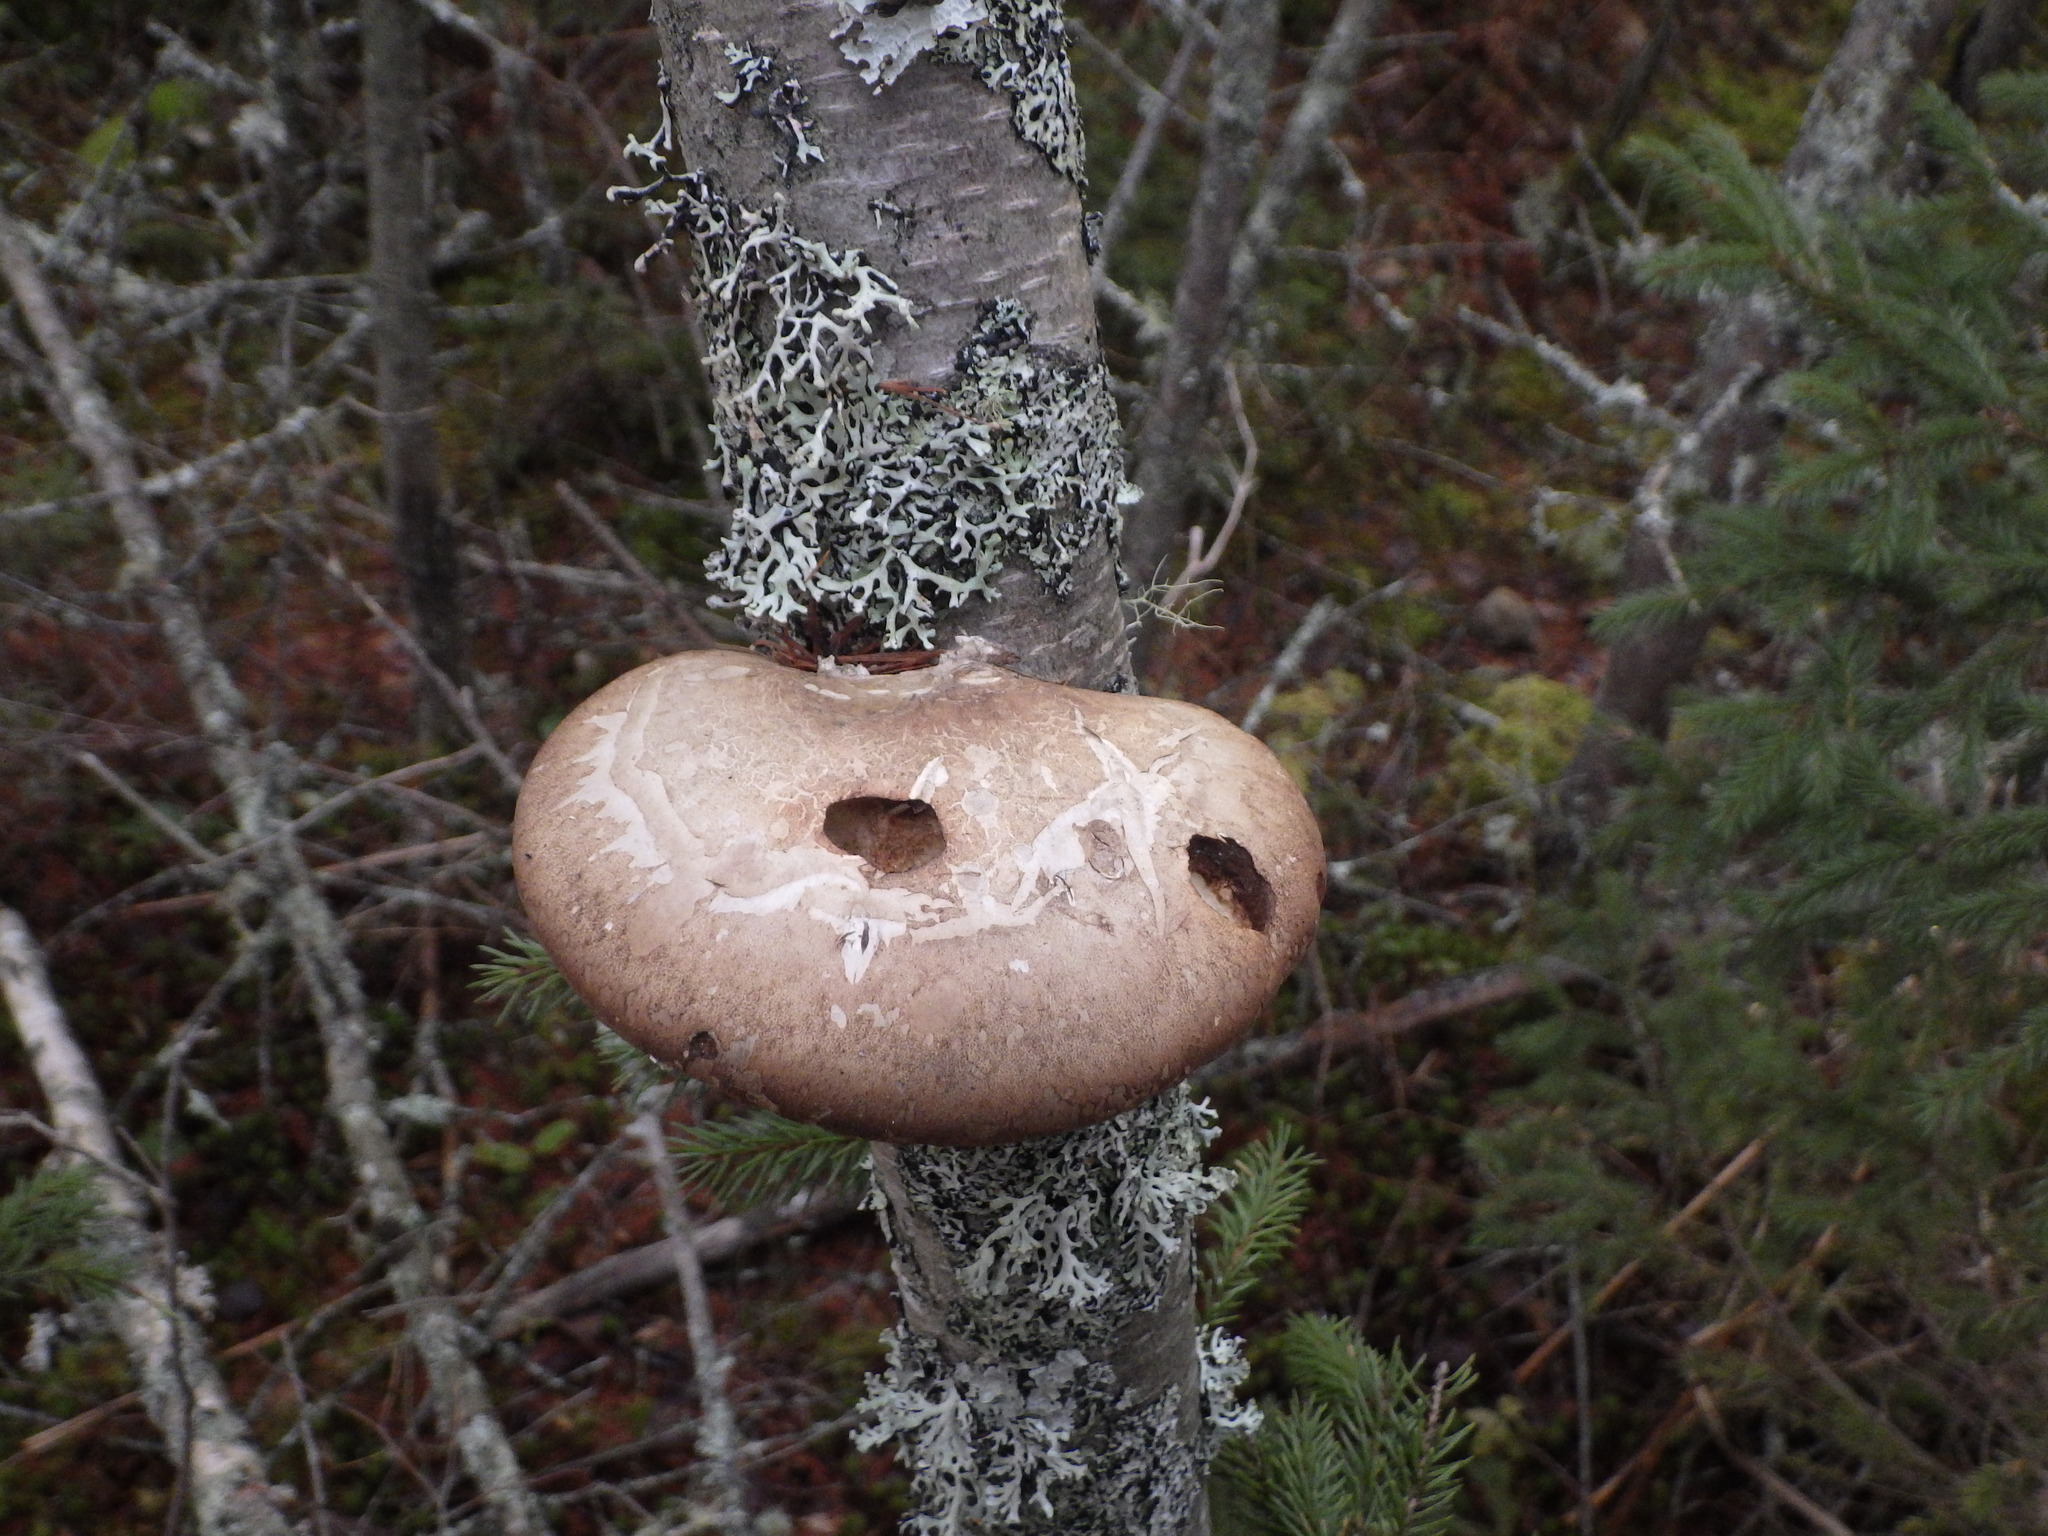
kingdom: Fungi
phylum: Basidiomycota
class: Agaricomycetes
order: Polyporales
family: Fomitopsidaceae
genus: Fomitopsis
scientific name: Fomitopsis betulina
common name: Birch polypore
